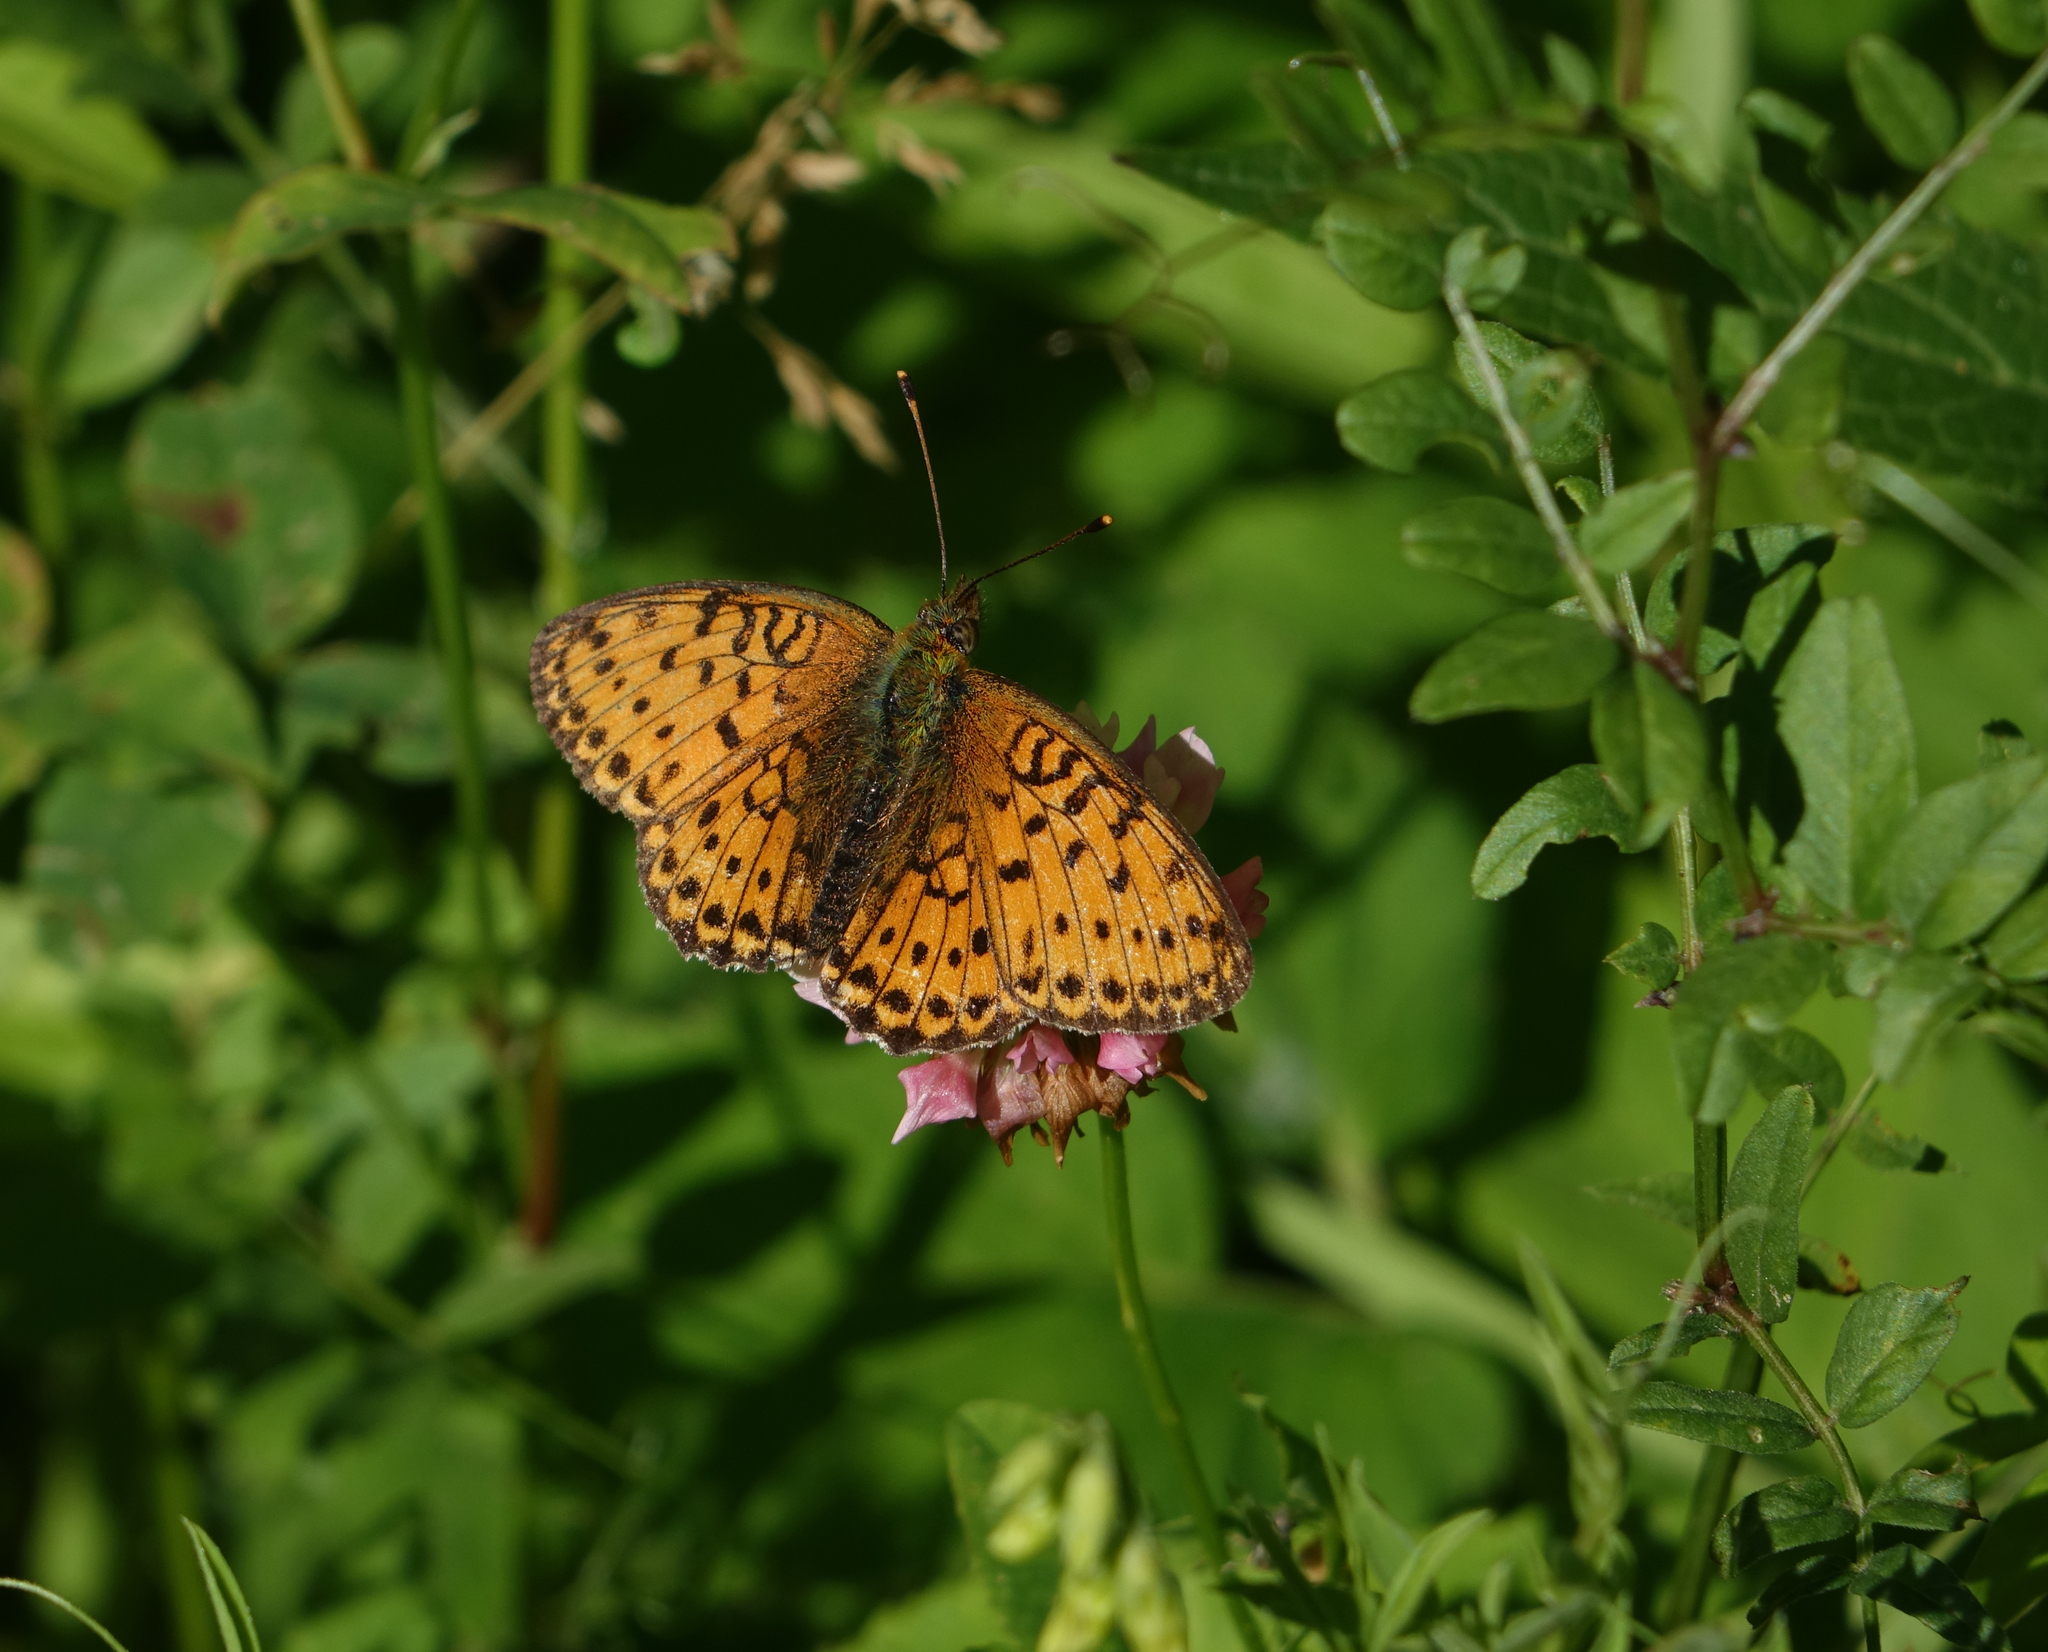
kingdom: Animalia
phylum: Arthropoda
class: Insecta
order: Lepidoptera
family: Nymphalidae
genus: Brenthis
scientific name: Brenthis ino
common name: Lesser marbled fritillary
